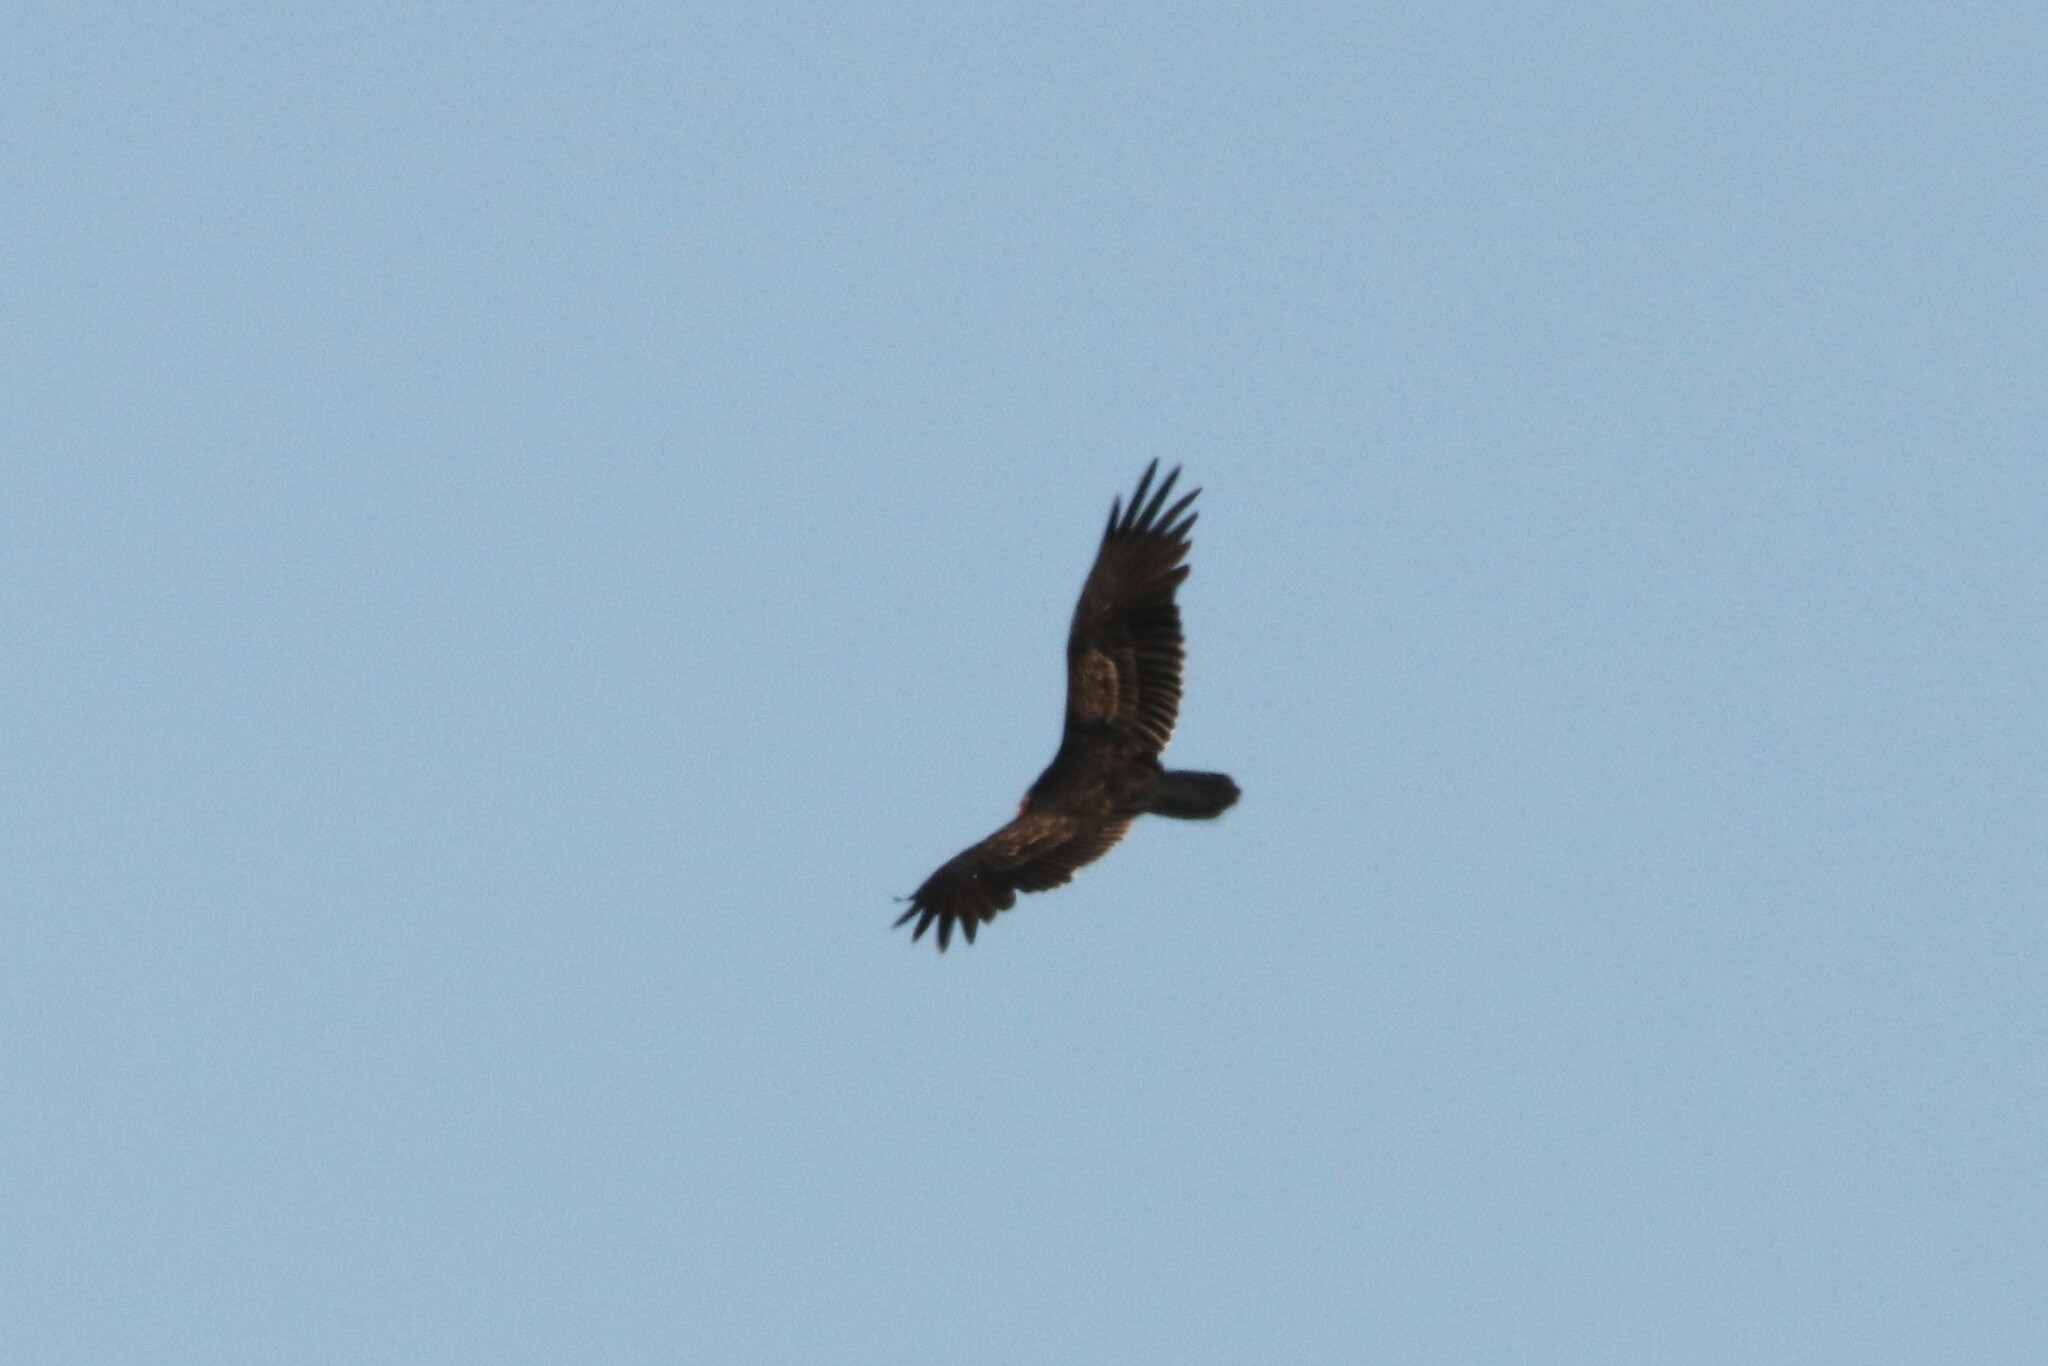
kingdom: Animalia
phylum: Chordata
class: Aves
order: Accipitriformes
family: Cathartidae
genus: Cathartes
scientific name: Cathartes aura
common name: Turkey vulture
